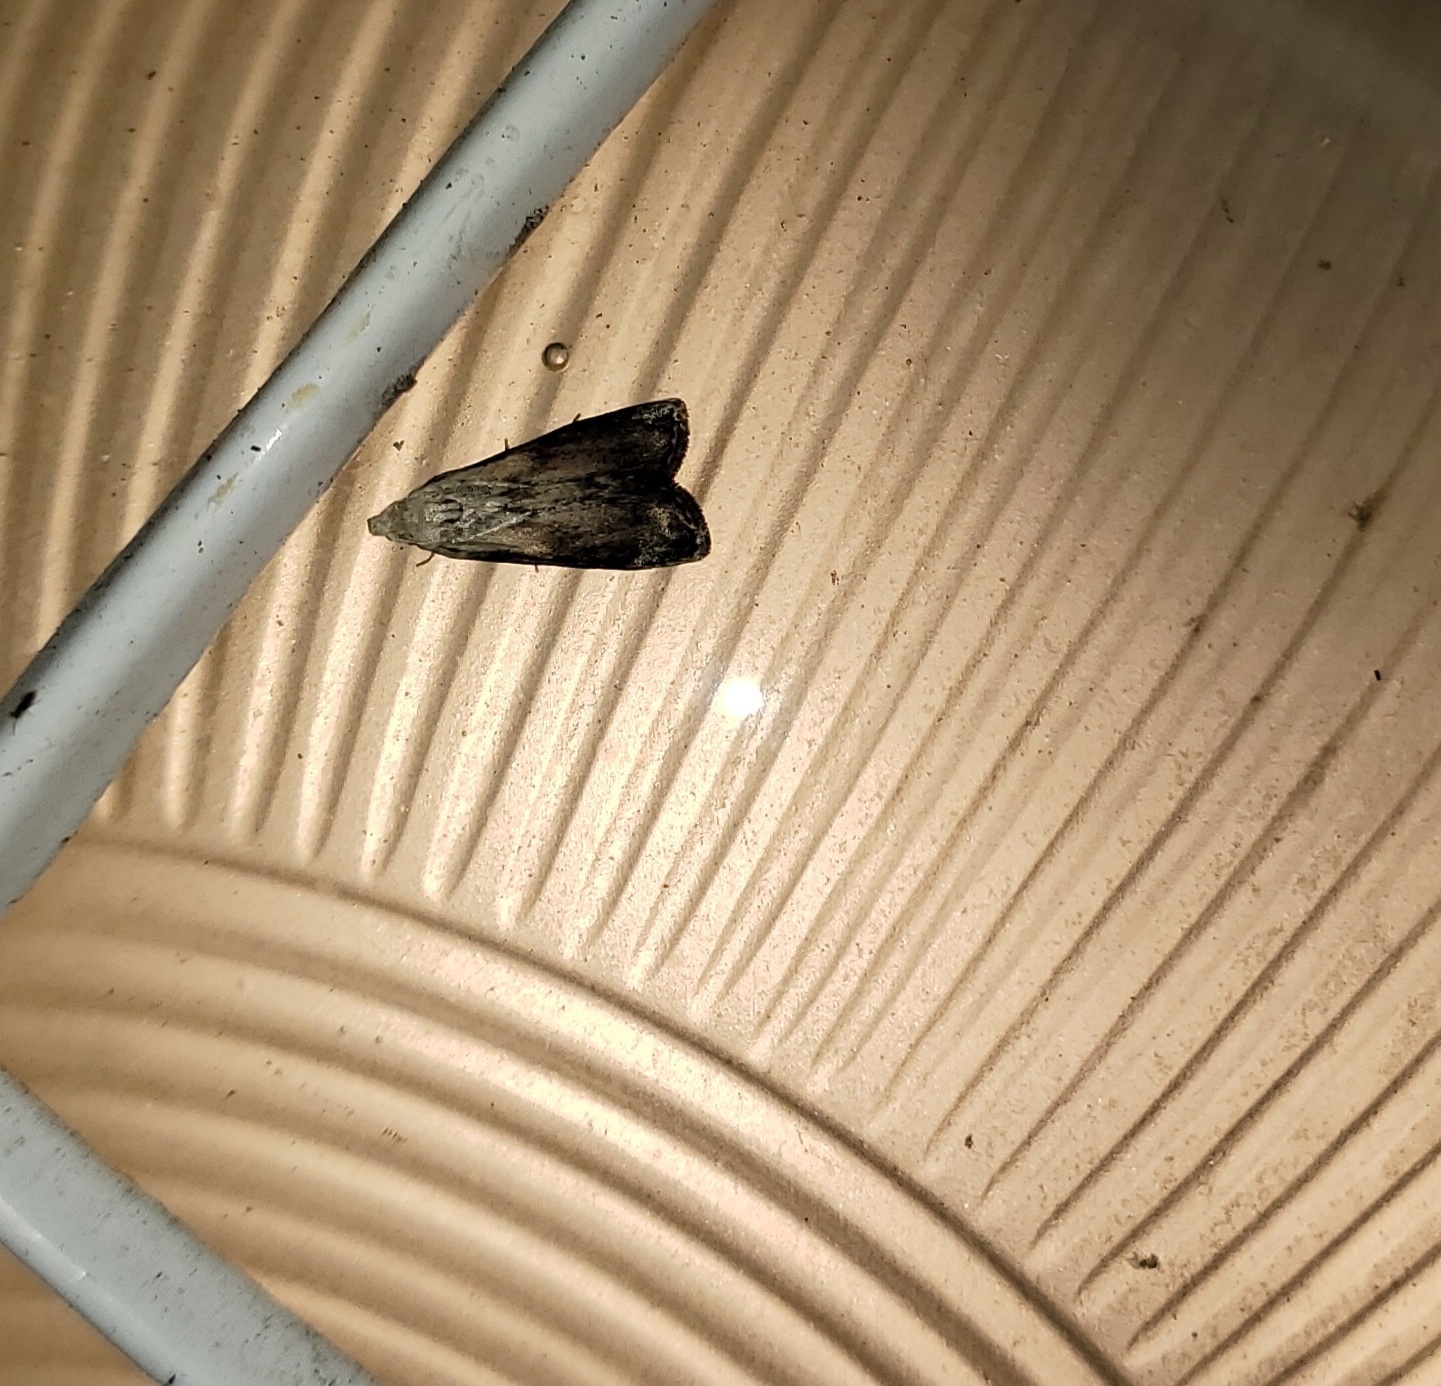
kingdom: Animalia
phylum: Arthropoda
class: Insecta
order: Lepidoptera
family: Pyralidae
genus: Aphomia
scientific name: Aphomia sociella
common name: Bee moth
